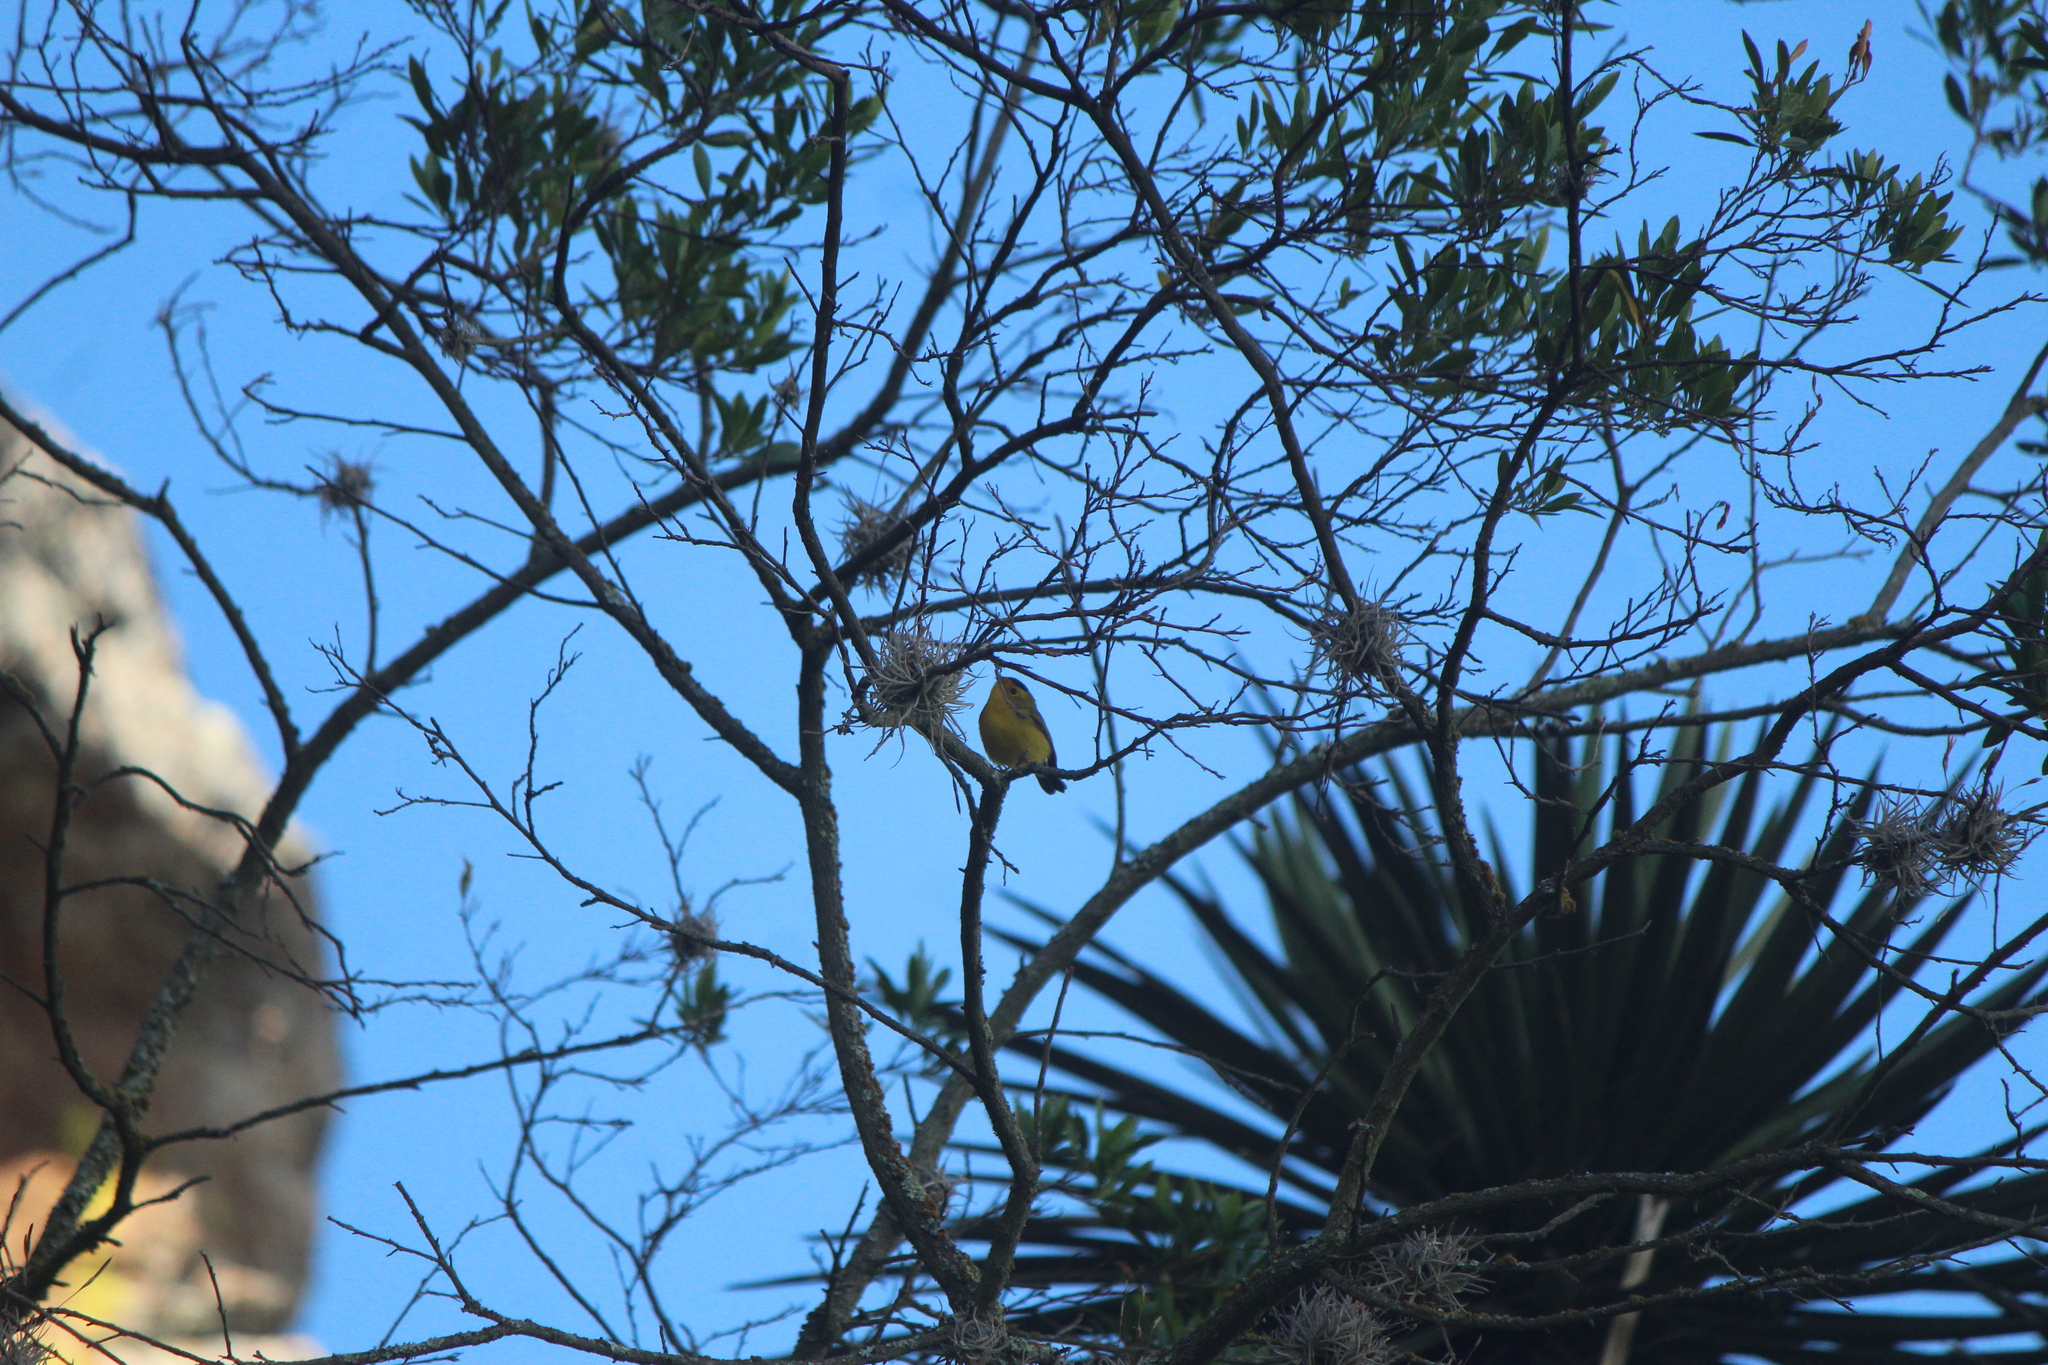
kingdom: Animalia
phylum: Chordata
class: Aves
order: Passeriformes
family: Parulidae
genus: Cardellina
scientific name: Cardellina pusilla
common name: Wilson's warbler
